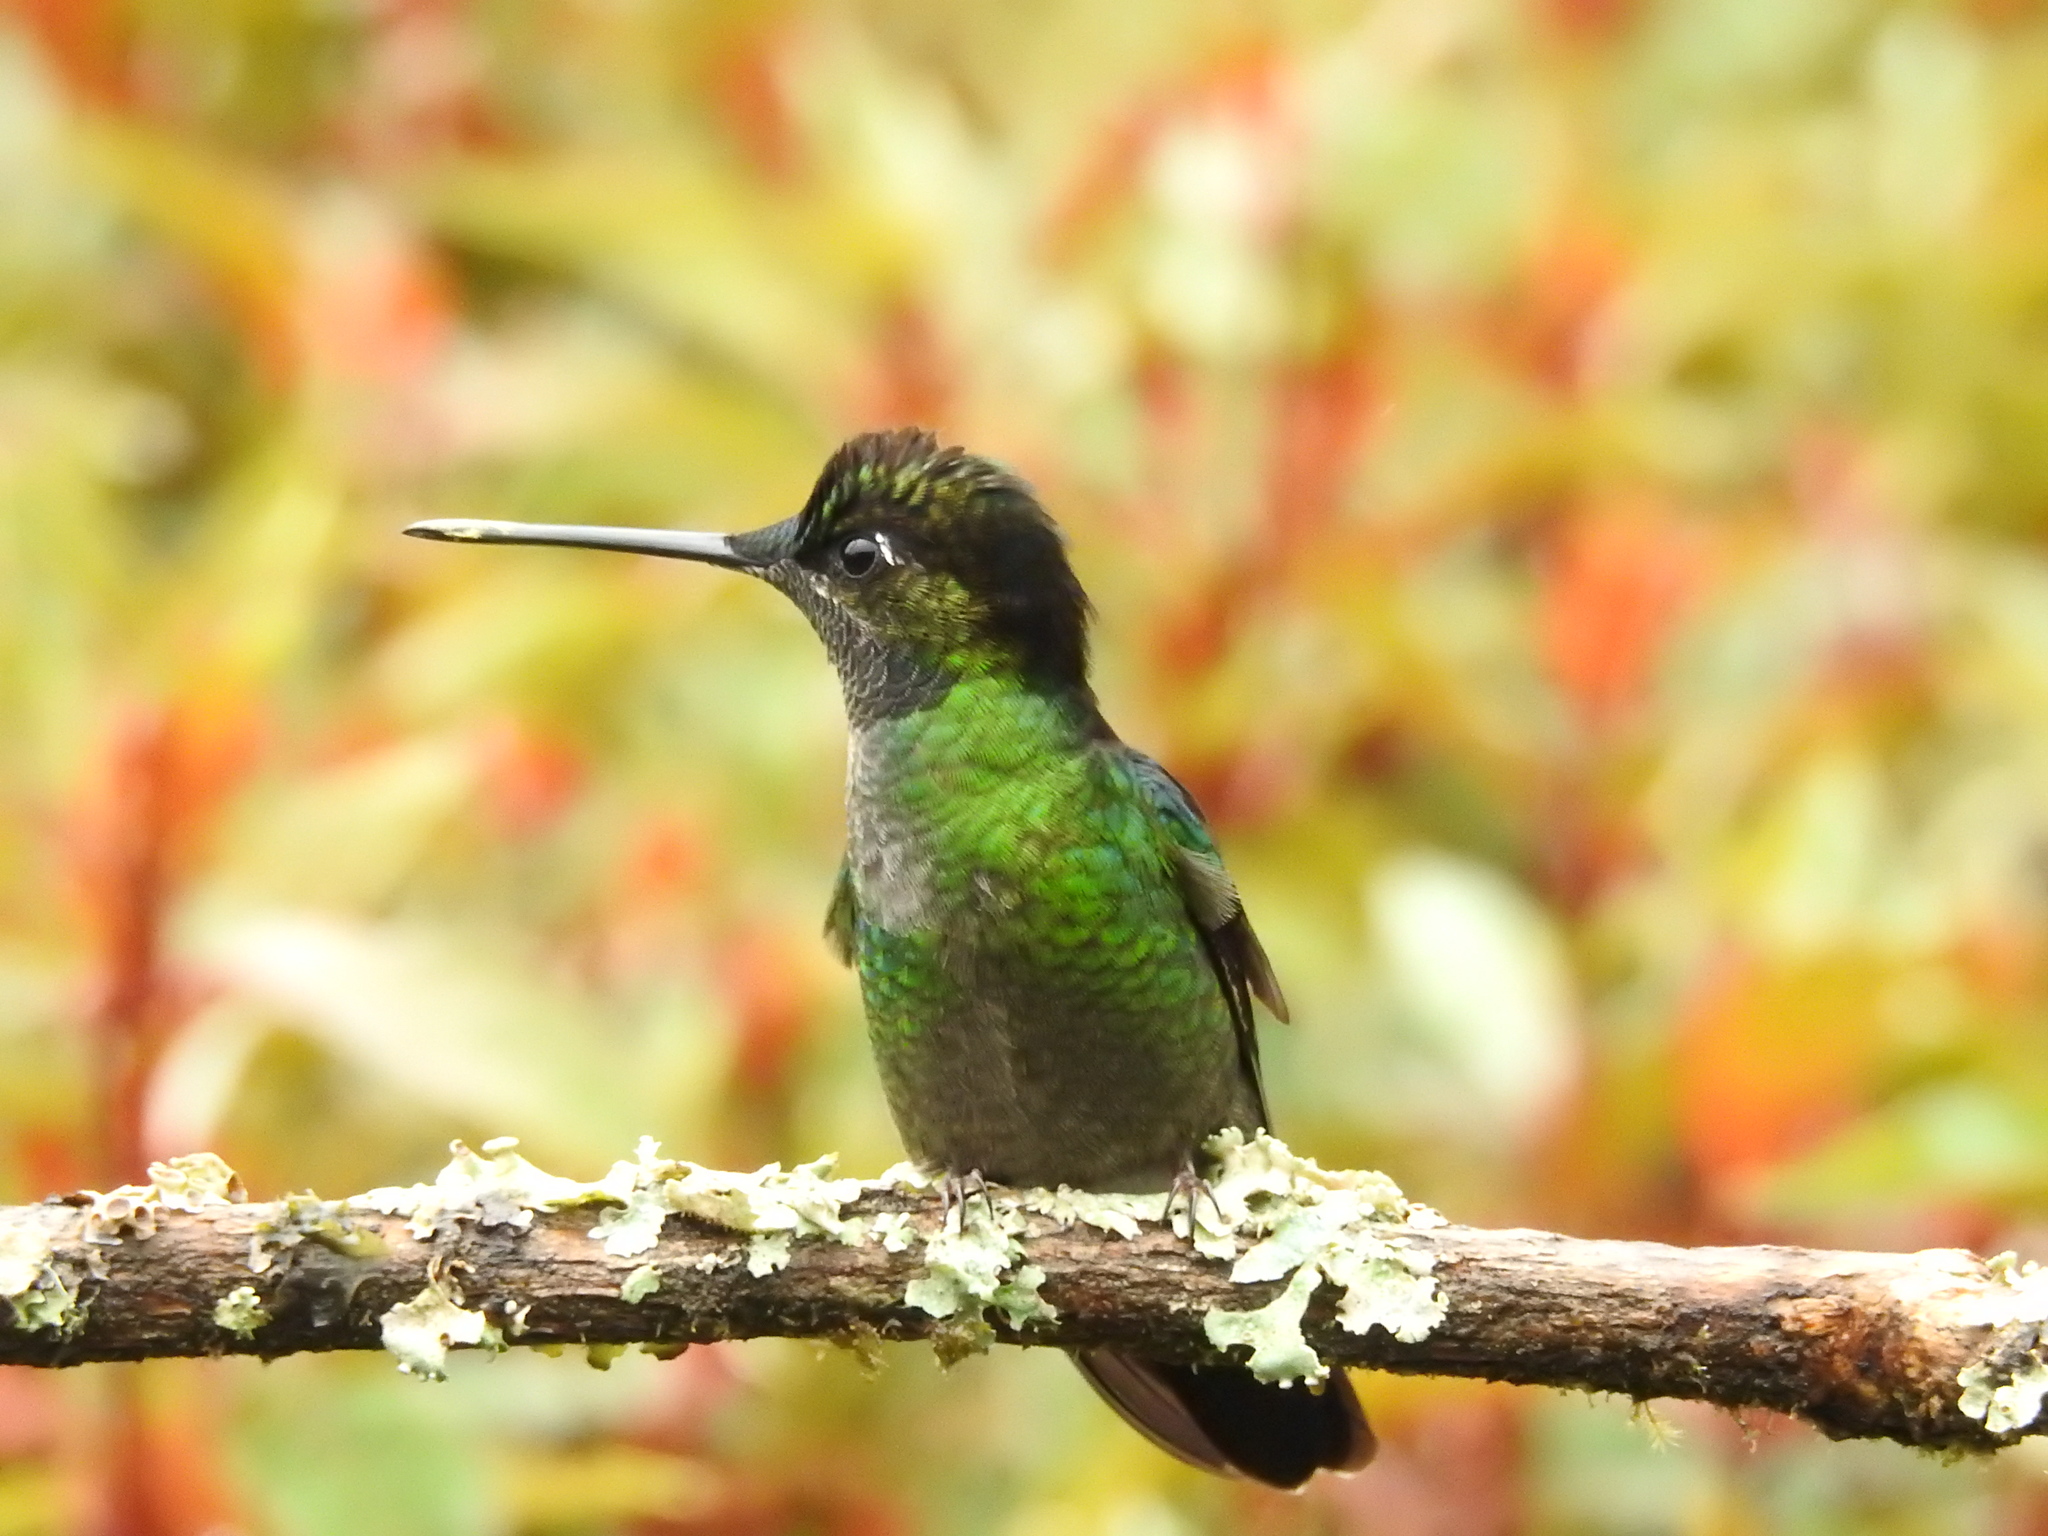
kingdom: Animalia
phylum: Chordata
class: Aves
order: Apodiformes
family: Trochilidae
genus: Eugenes
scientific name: Eugenes spectabilis
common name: Talamanca hummingbird
